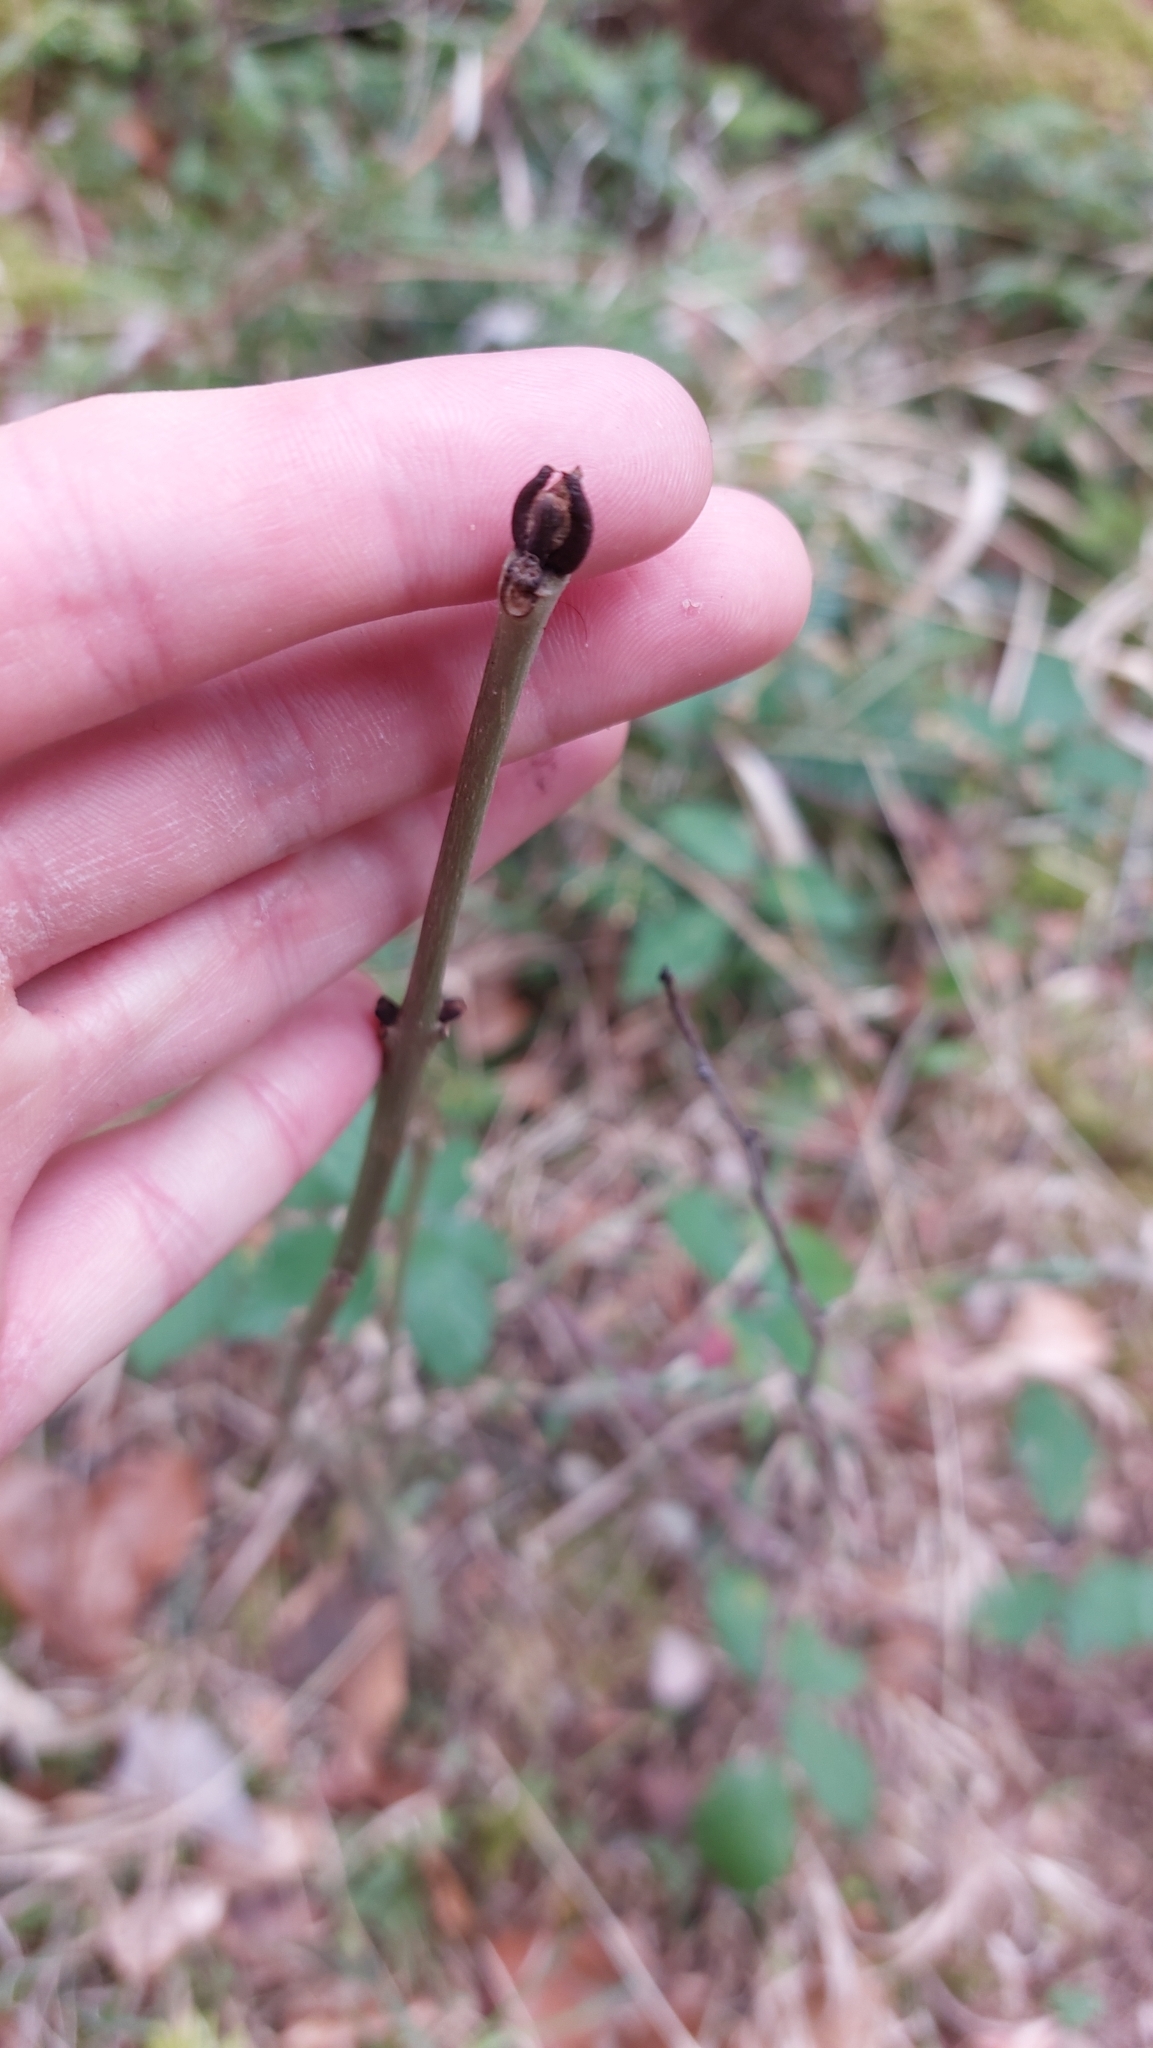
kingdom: Plantae
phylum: Tracheophyta
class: Magnoliopsida
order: Lamiales
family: Oleaceae
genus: Fraxinus
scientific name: Fraxinus excelsior
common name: European ash
